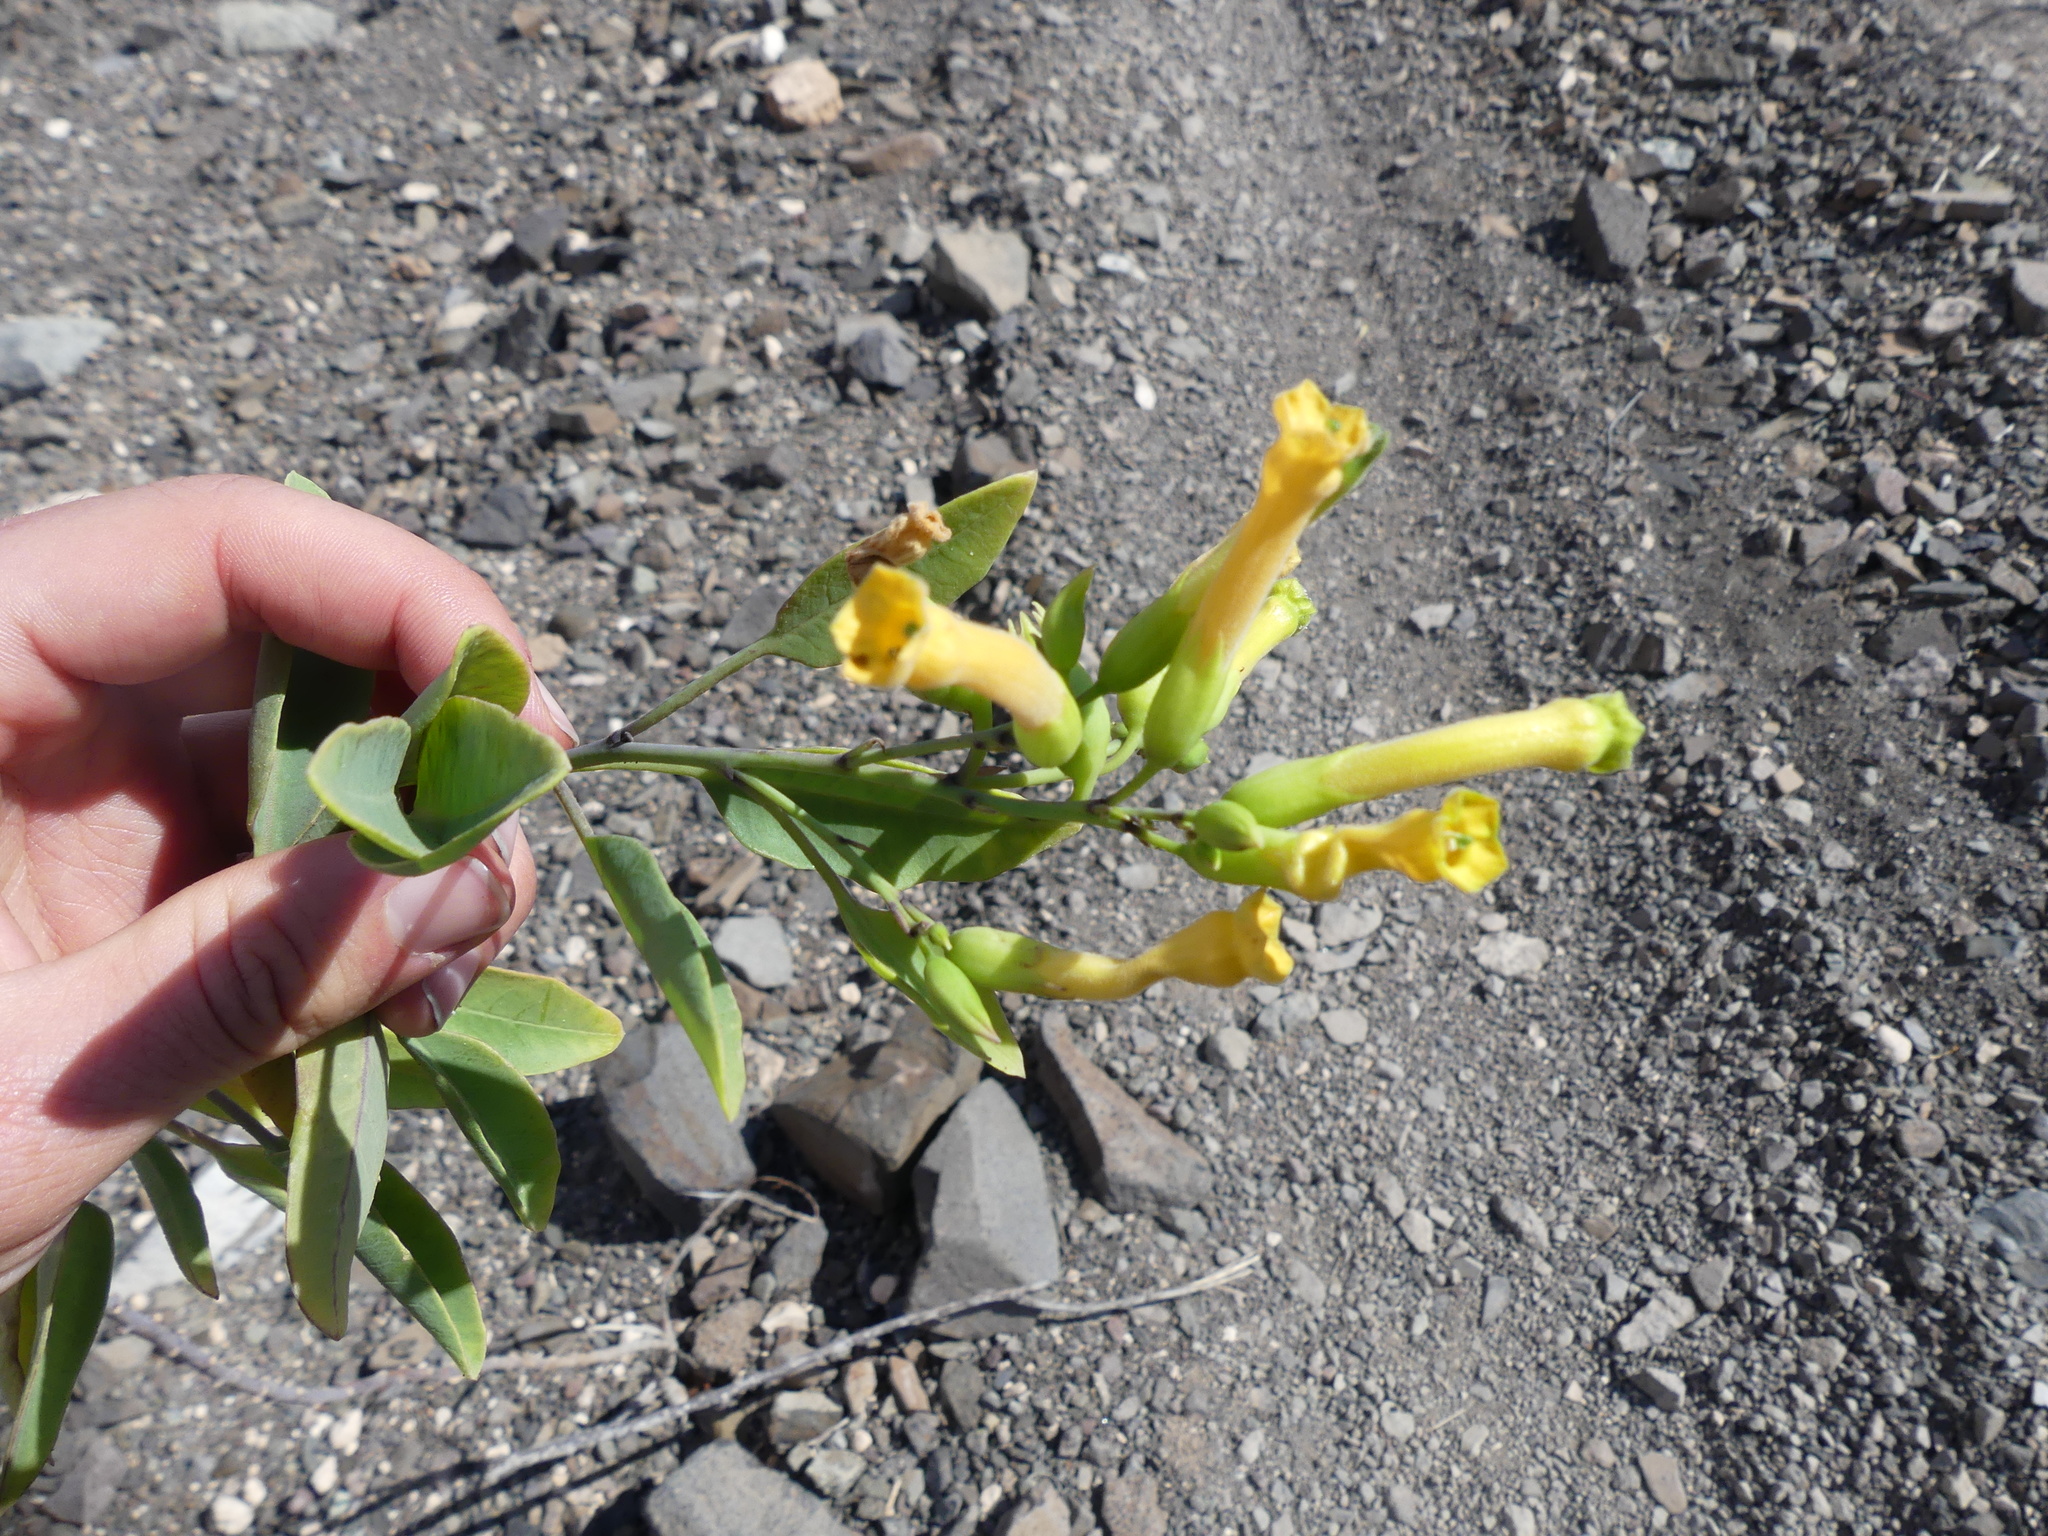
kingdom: Plantae
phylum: Tracheophyta
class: Magnoliopsida
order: Solanales
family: Solanaceae
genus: Nicotiana
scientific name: Nicotiana glauca
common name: Tree tobacco
